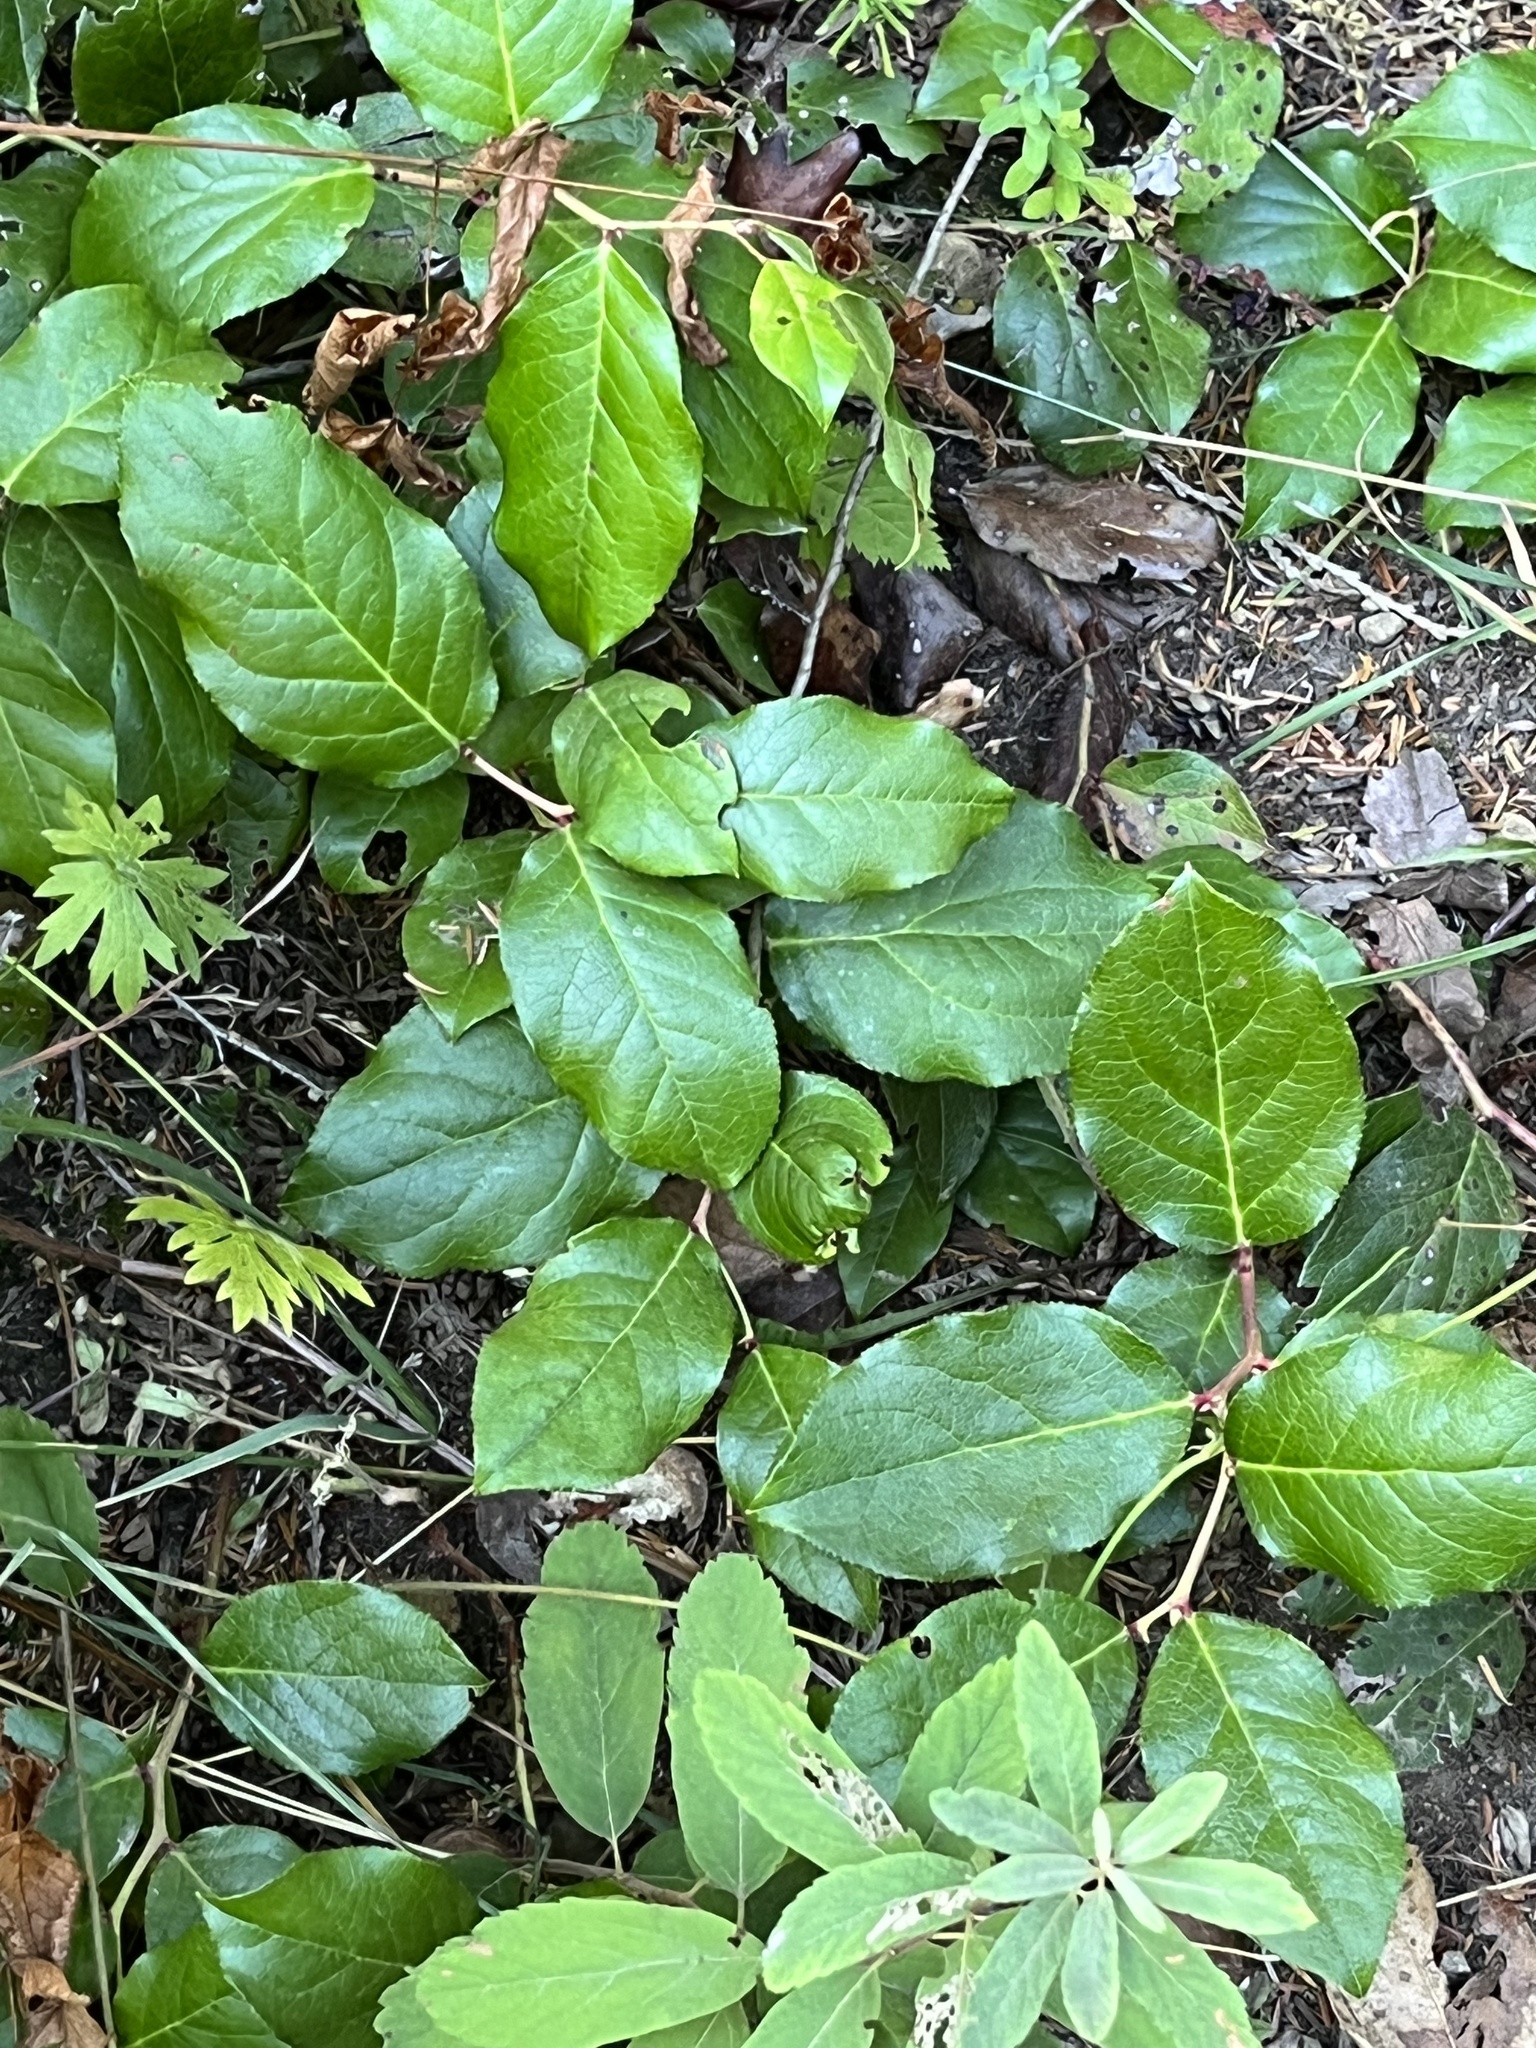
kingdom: Plantae
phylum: Tracheophyta
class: Magnoliopsida
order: Ericales
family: Ericaceae
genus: Gaultheria
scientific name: Gaultheria shallon
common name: Shallon
